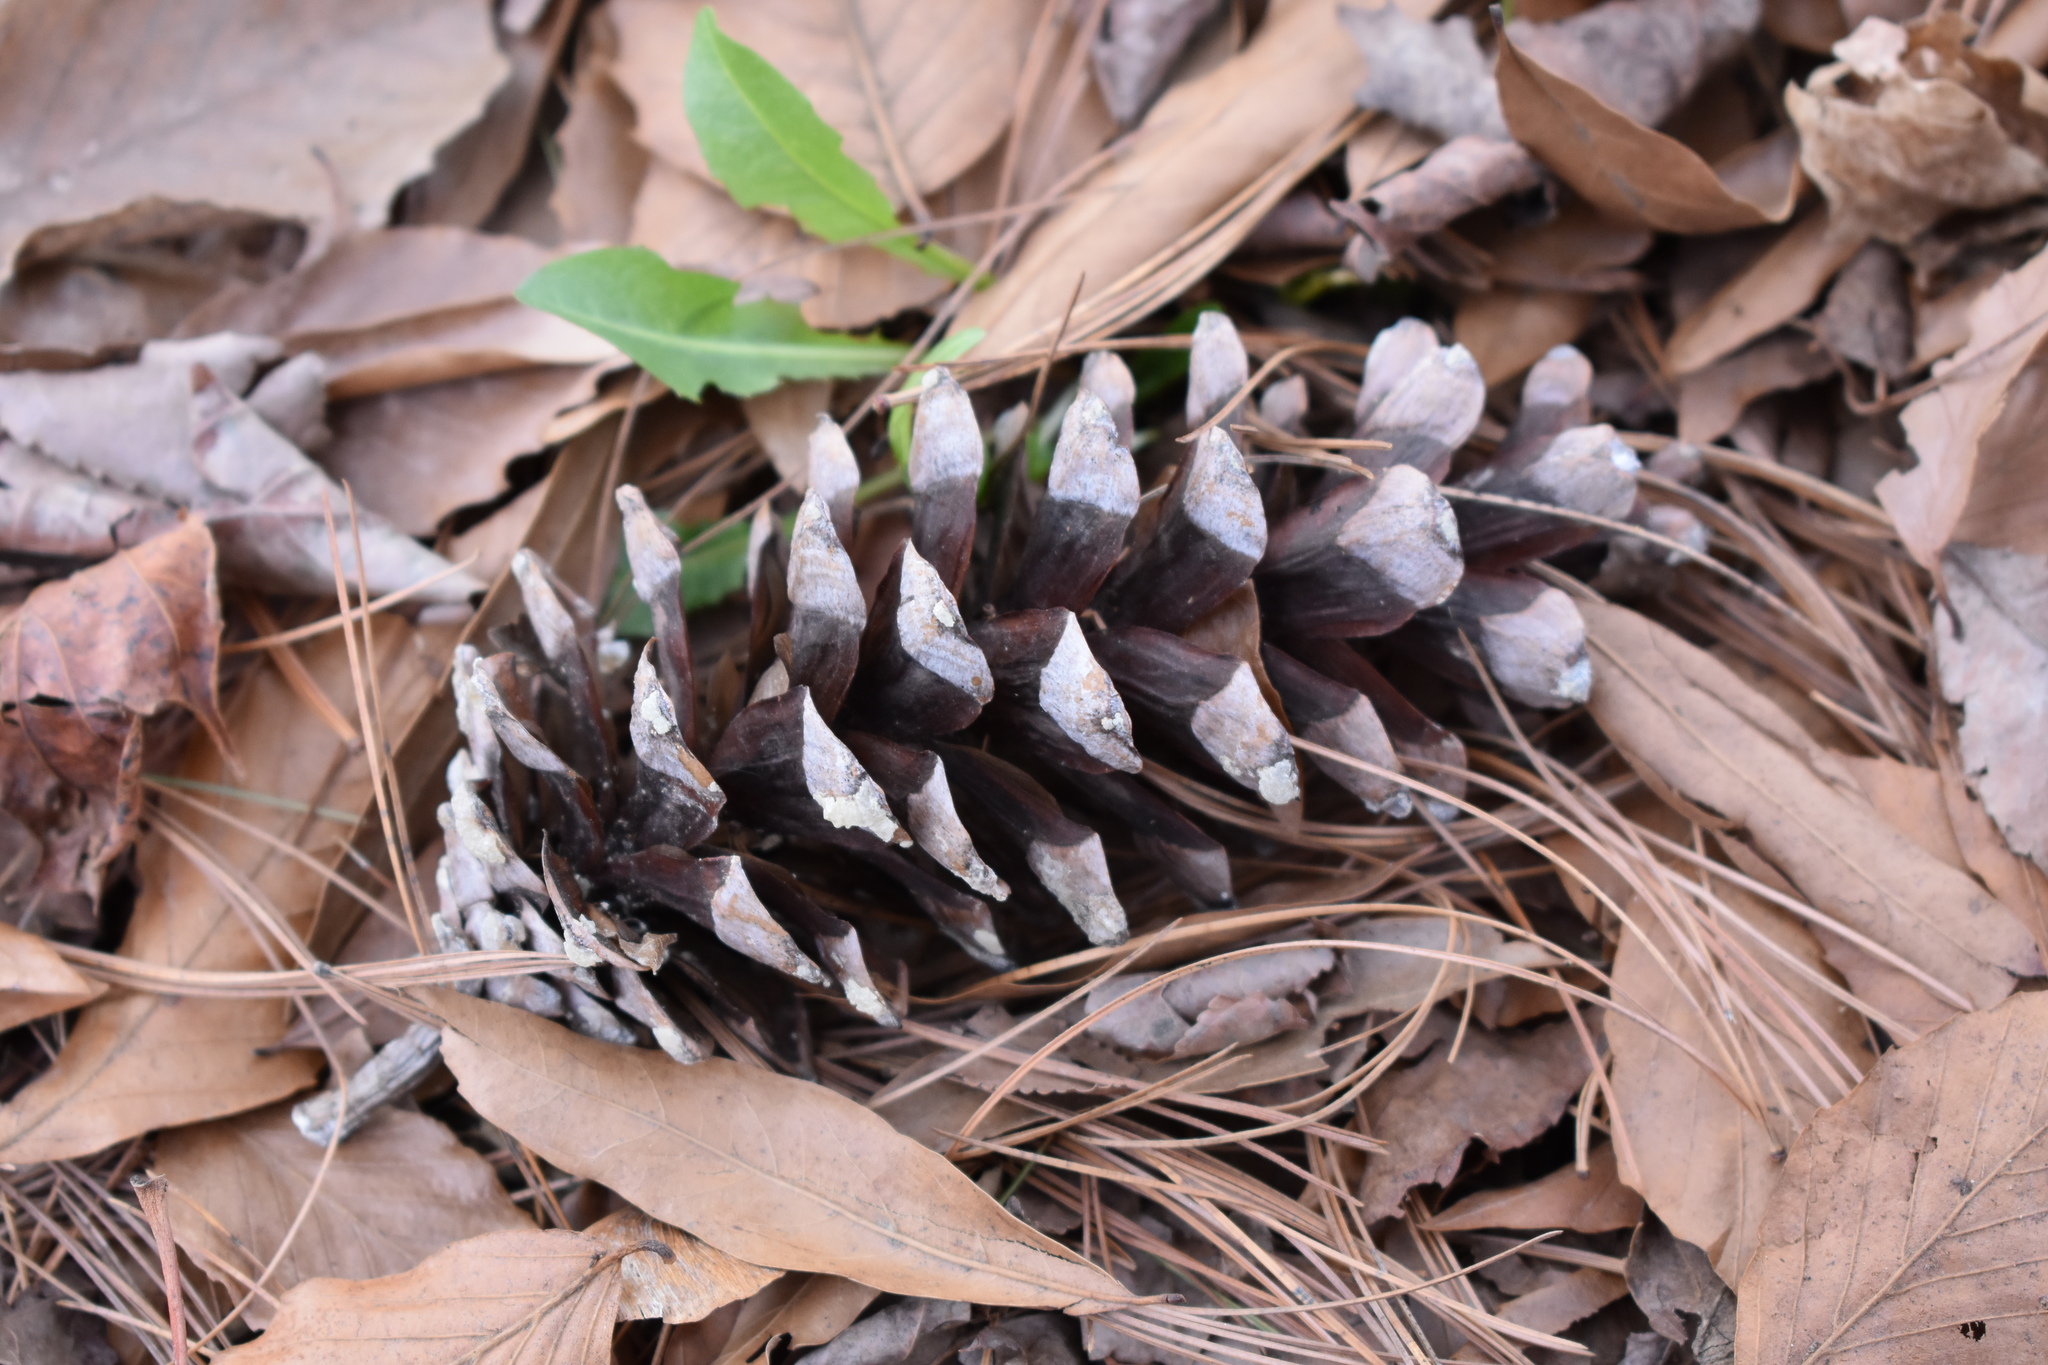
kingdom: Plantae
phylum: Tracheophyta
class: Pinopsida
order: Pinales
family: Pinaceae
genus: Pinus
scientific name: Pinus strobus
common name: Weymouth pine
